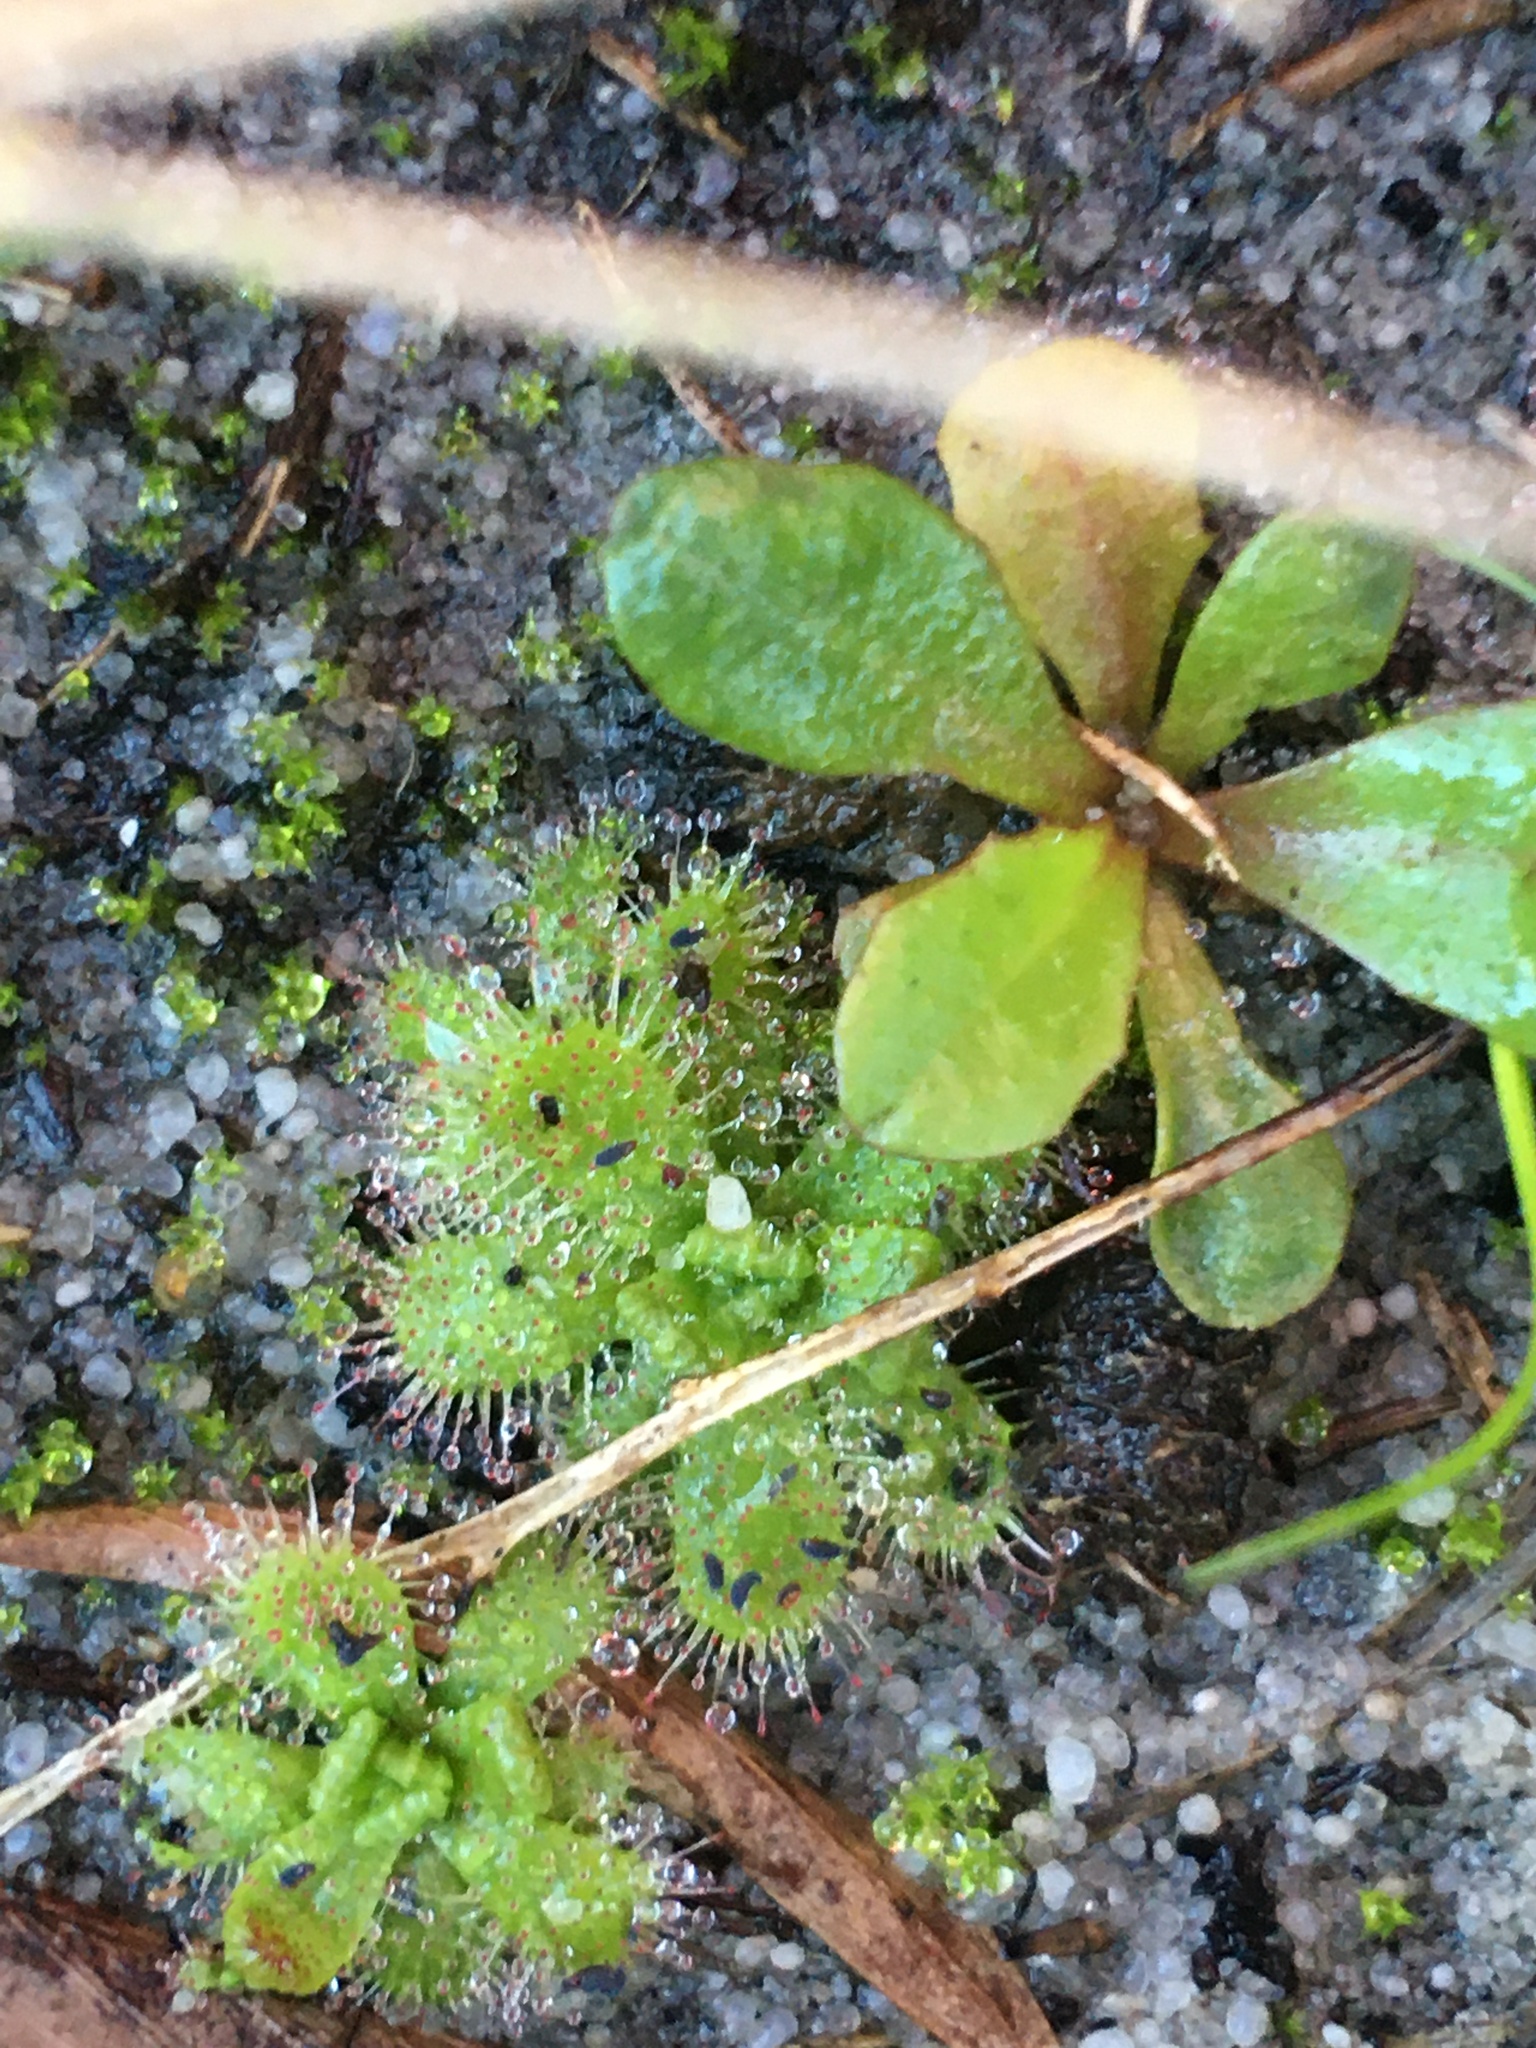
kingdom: Plantae
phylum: Tracheophyta
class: Magnoliopsida
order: Caryophyllales
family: Droseraceae
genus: Drosera
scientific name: Drosera trinervia
